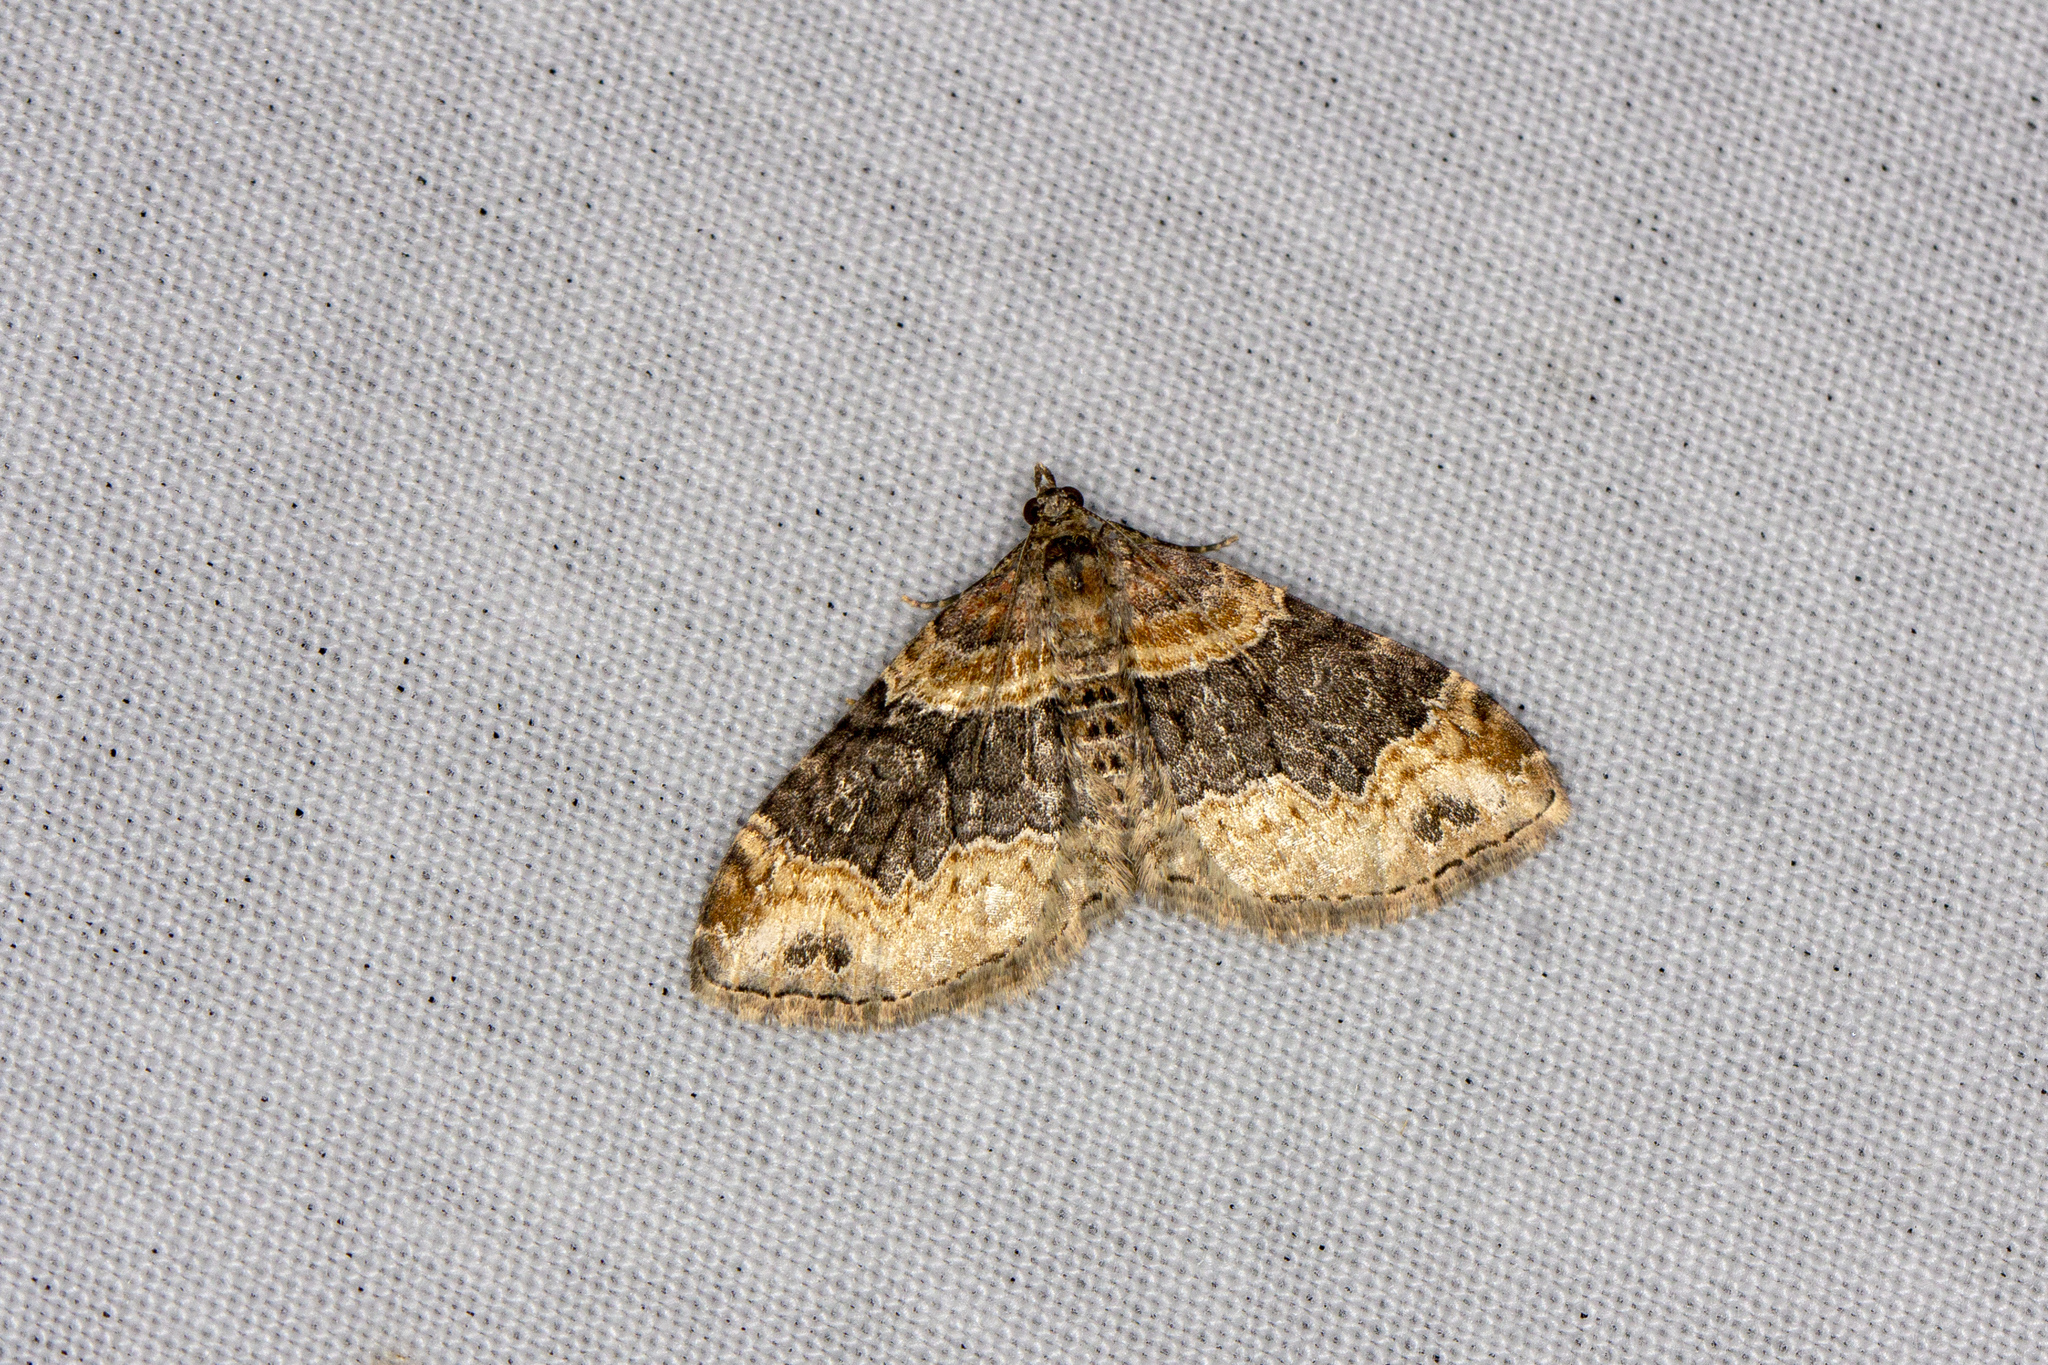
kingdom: Animalia
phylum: Arthropoda
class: Insecta
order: Lepidoptera
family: Geometridae
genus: Xanthorhoe
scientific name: Xanthorhoe ferrugata
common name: Dark-barred twin-spot carpet
